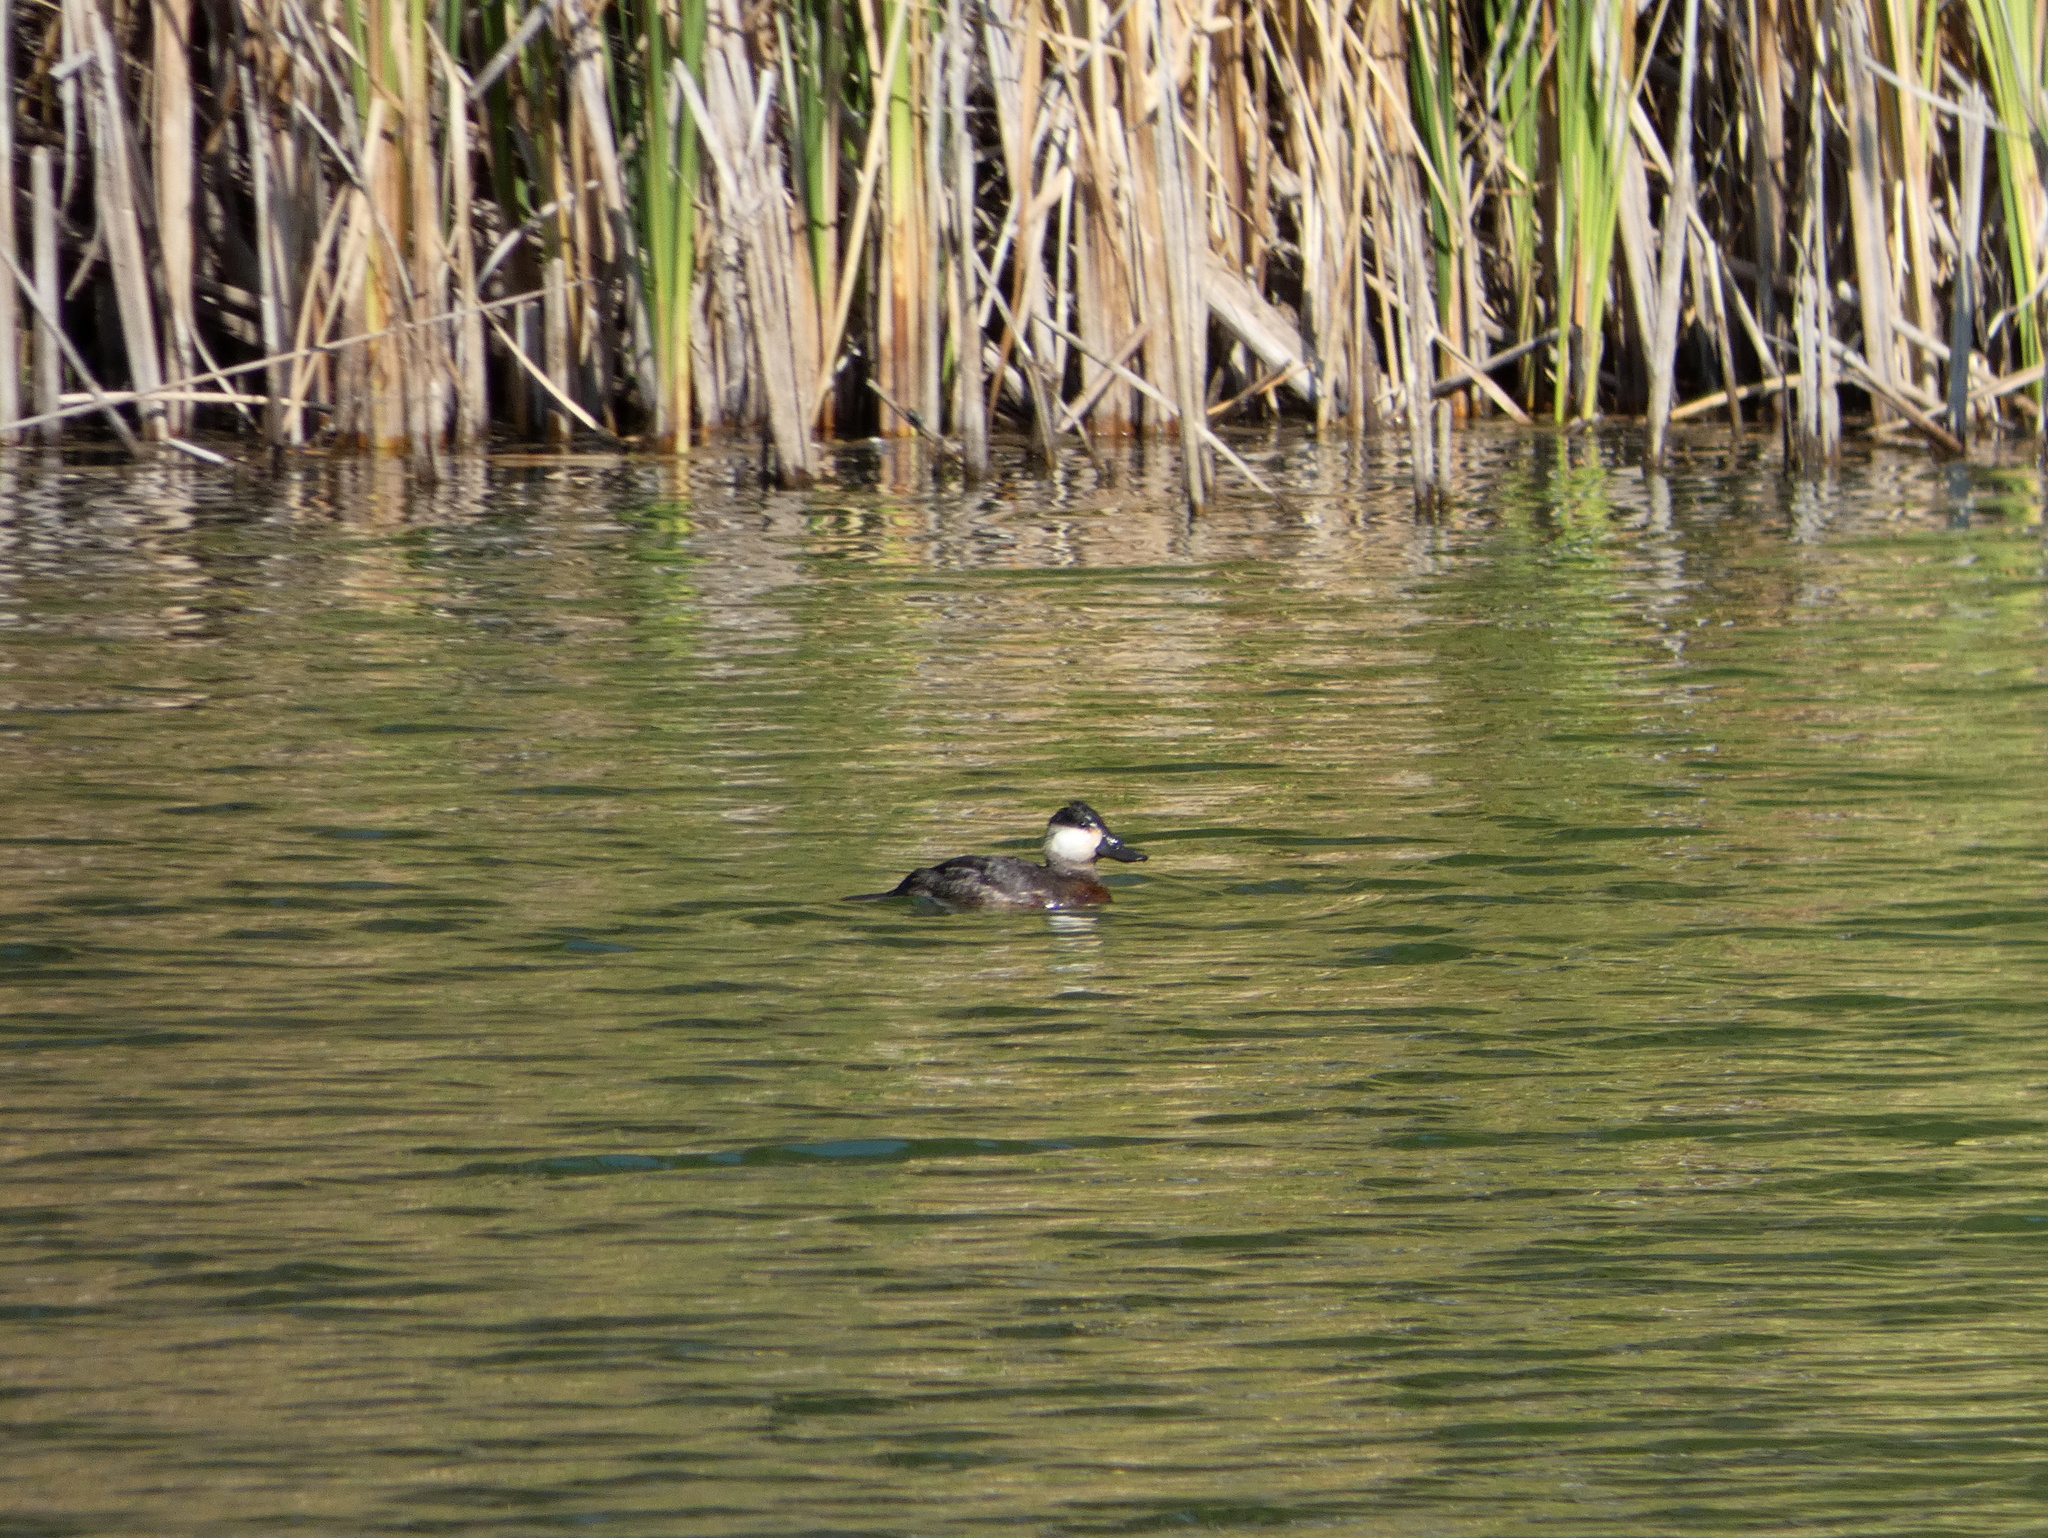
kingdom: Animalia
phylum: Chordata
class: Aves
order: Anseriformes
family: Anatidae
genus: Oxyura
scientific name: Oxyura jamaicensis
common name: Ruddy duck
